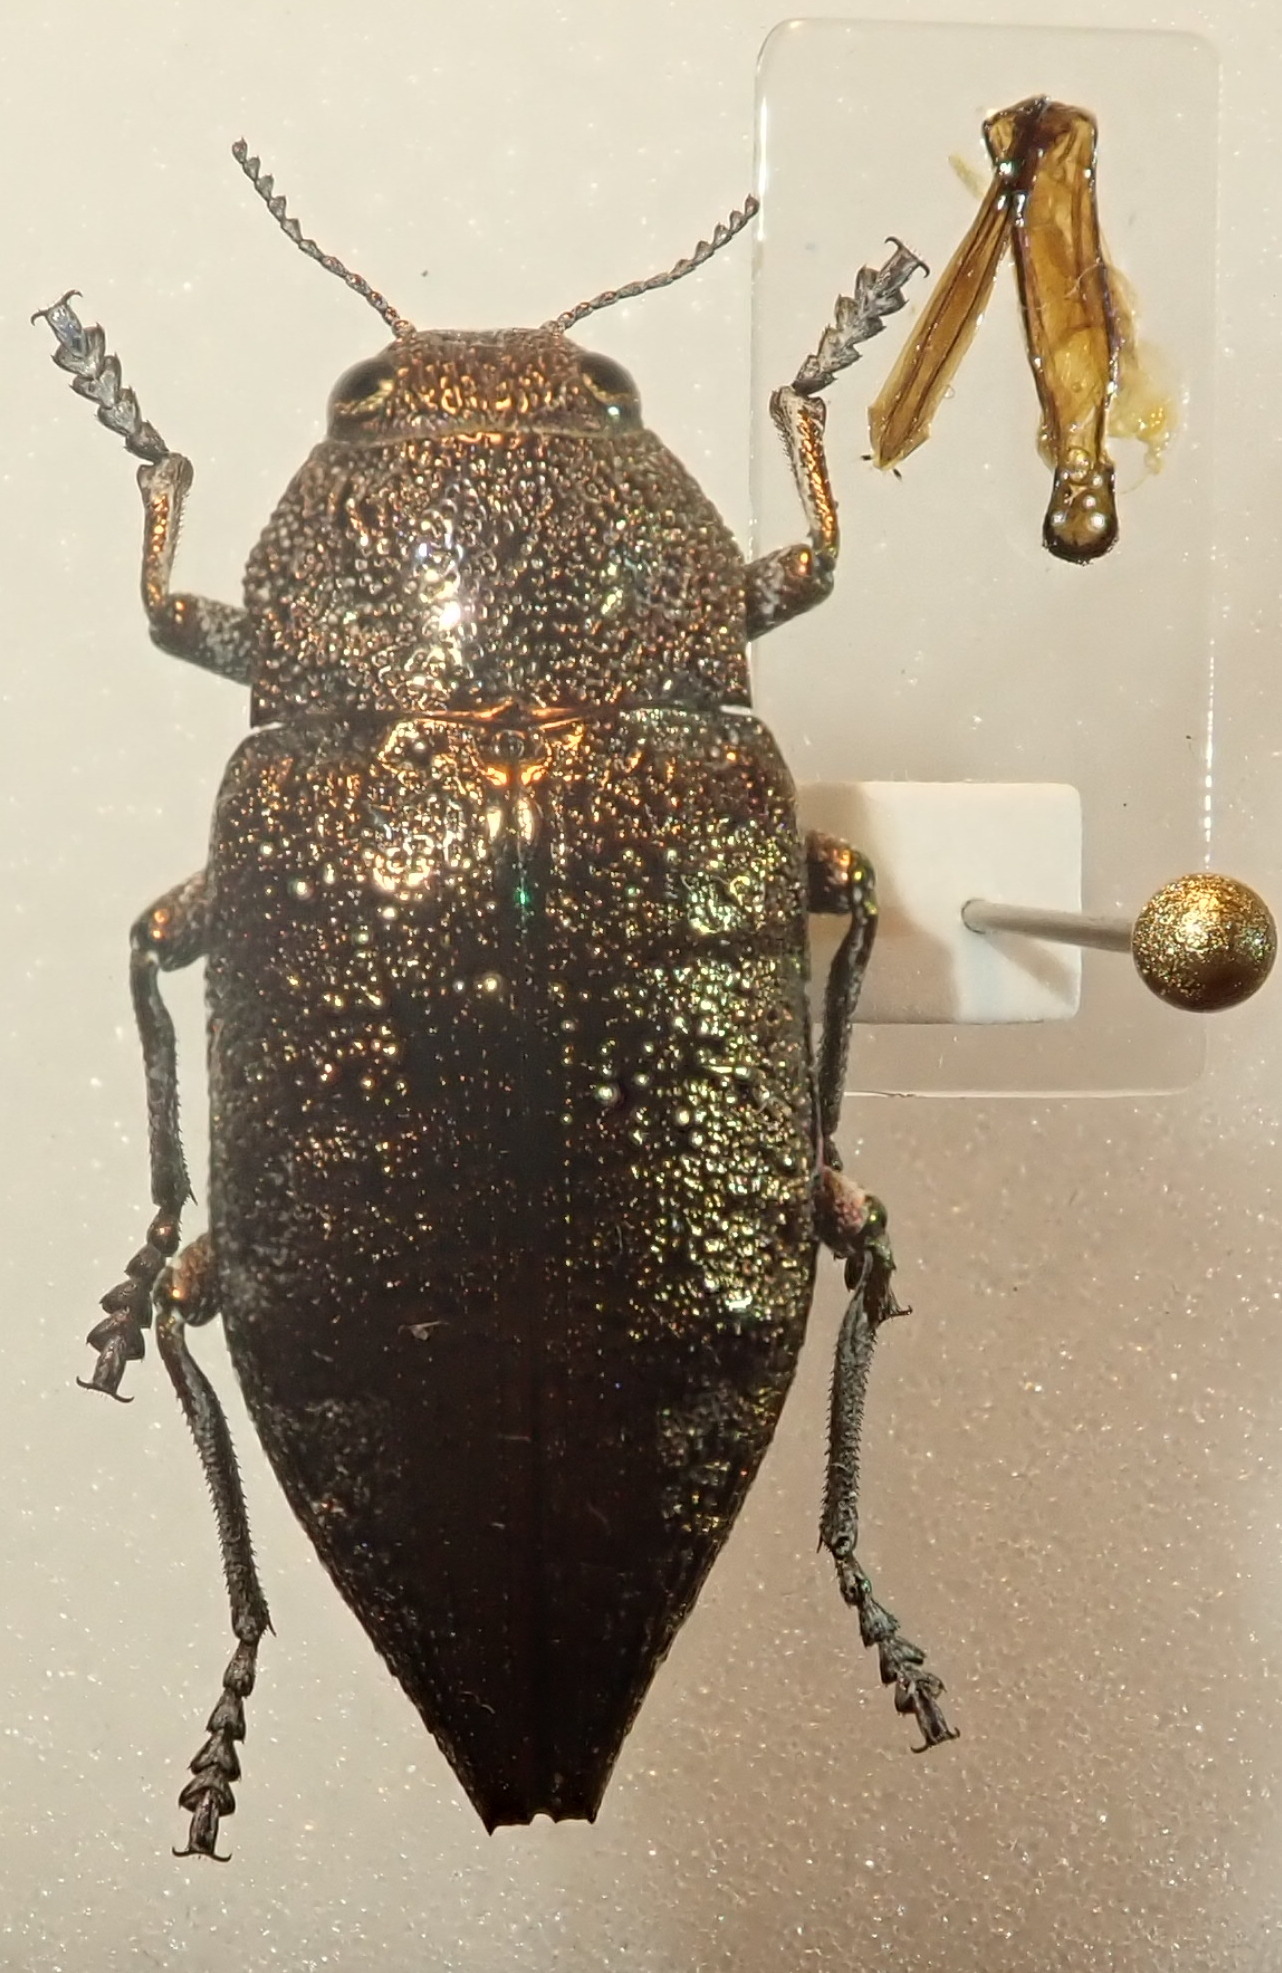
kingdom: Animalia
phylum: Arthropoda
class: Insecta
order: Coleoptera
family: Buprestidae
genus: Dicerca
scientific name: Dicerca aenea
